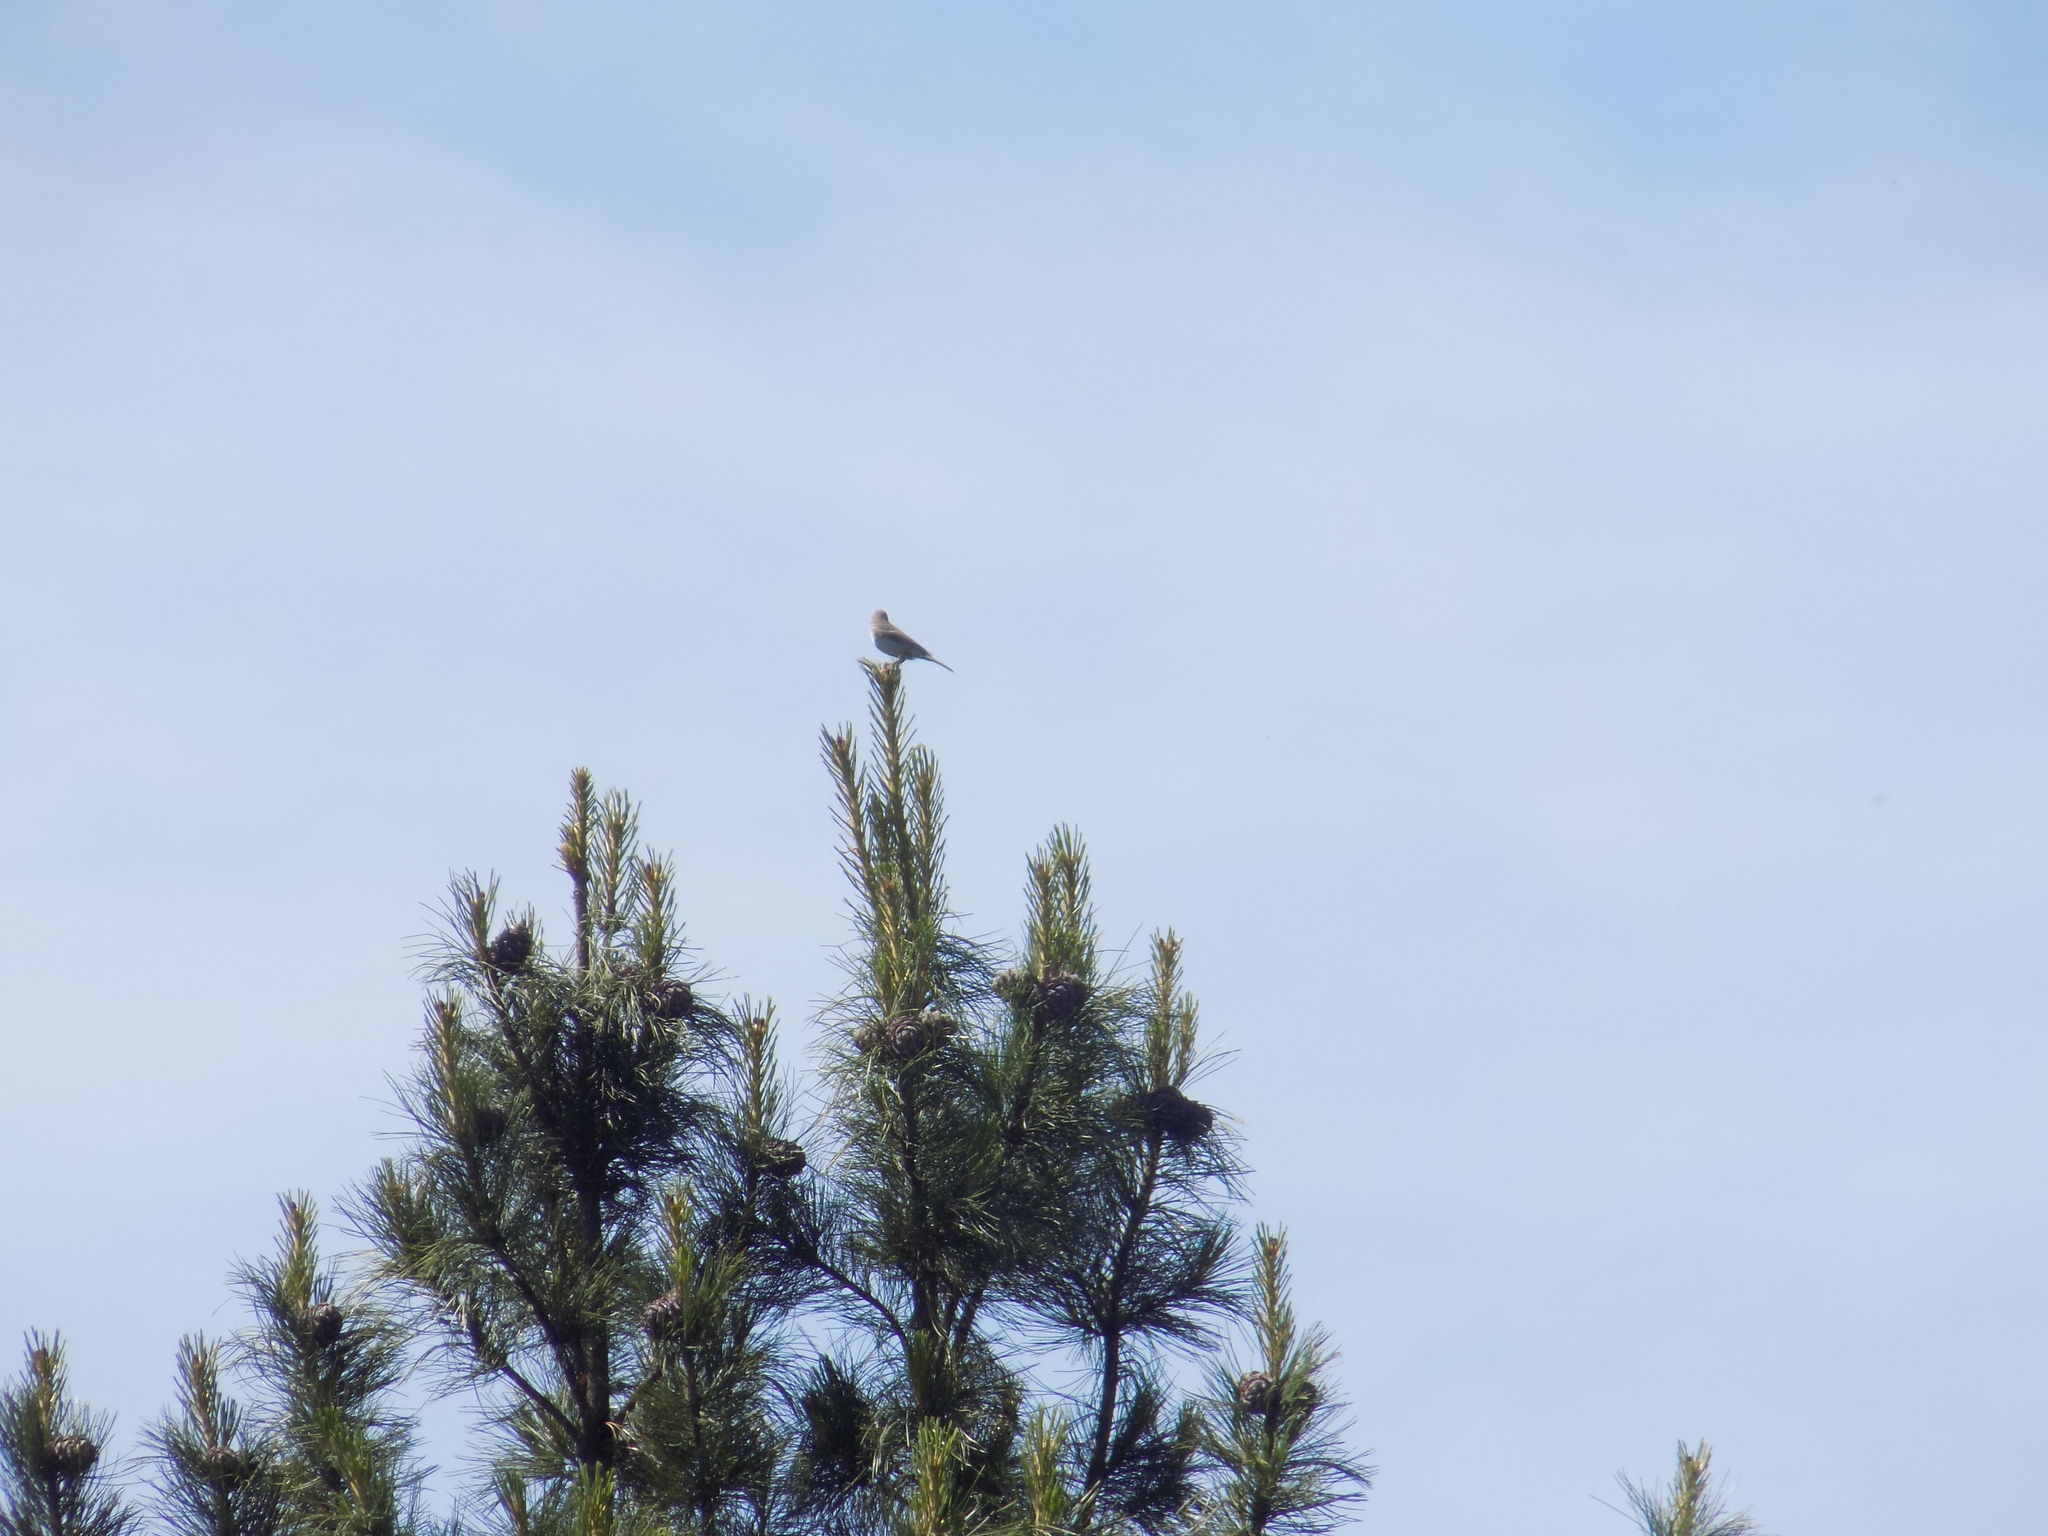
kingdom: Animalia
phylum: Chordata
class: Aves
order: Passeriformes
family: Motacillidae
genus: Anthus
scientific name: Anthus
